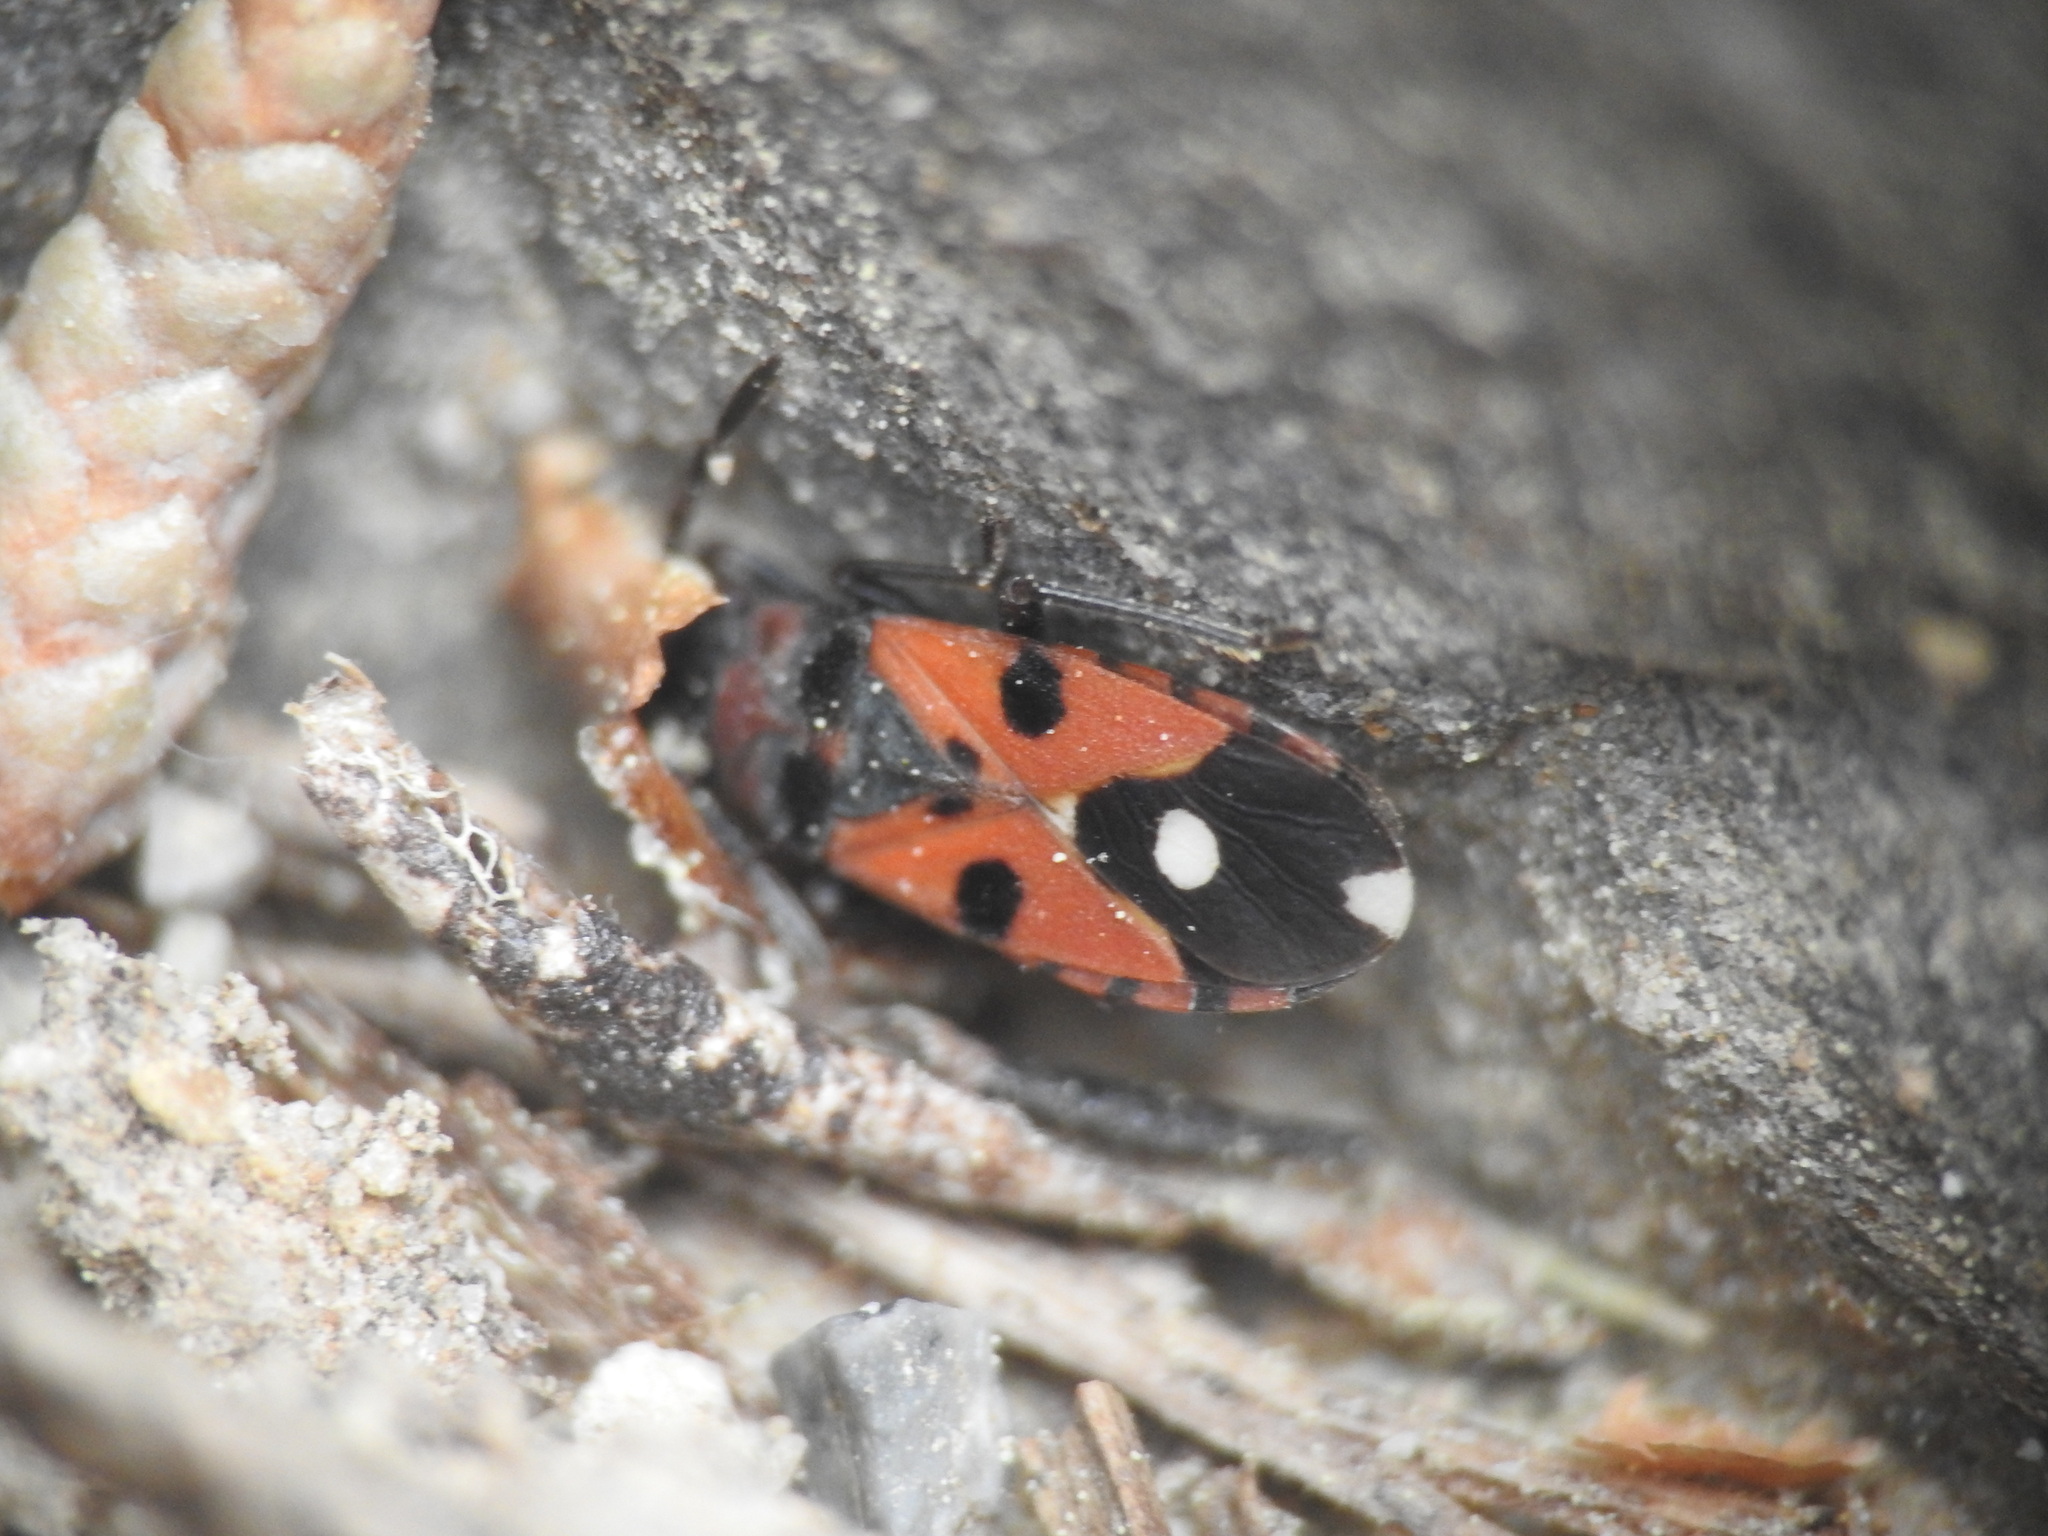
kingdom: Animalia
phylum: Arthropoda
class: Insecta
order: Hemiptera
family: Lygaeidae
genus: Horvathiolus
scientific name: Horvathiolus superbus
